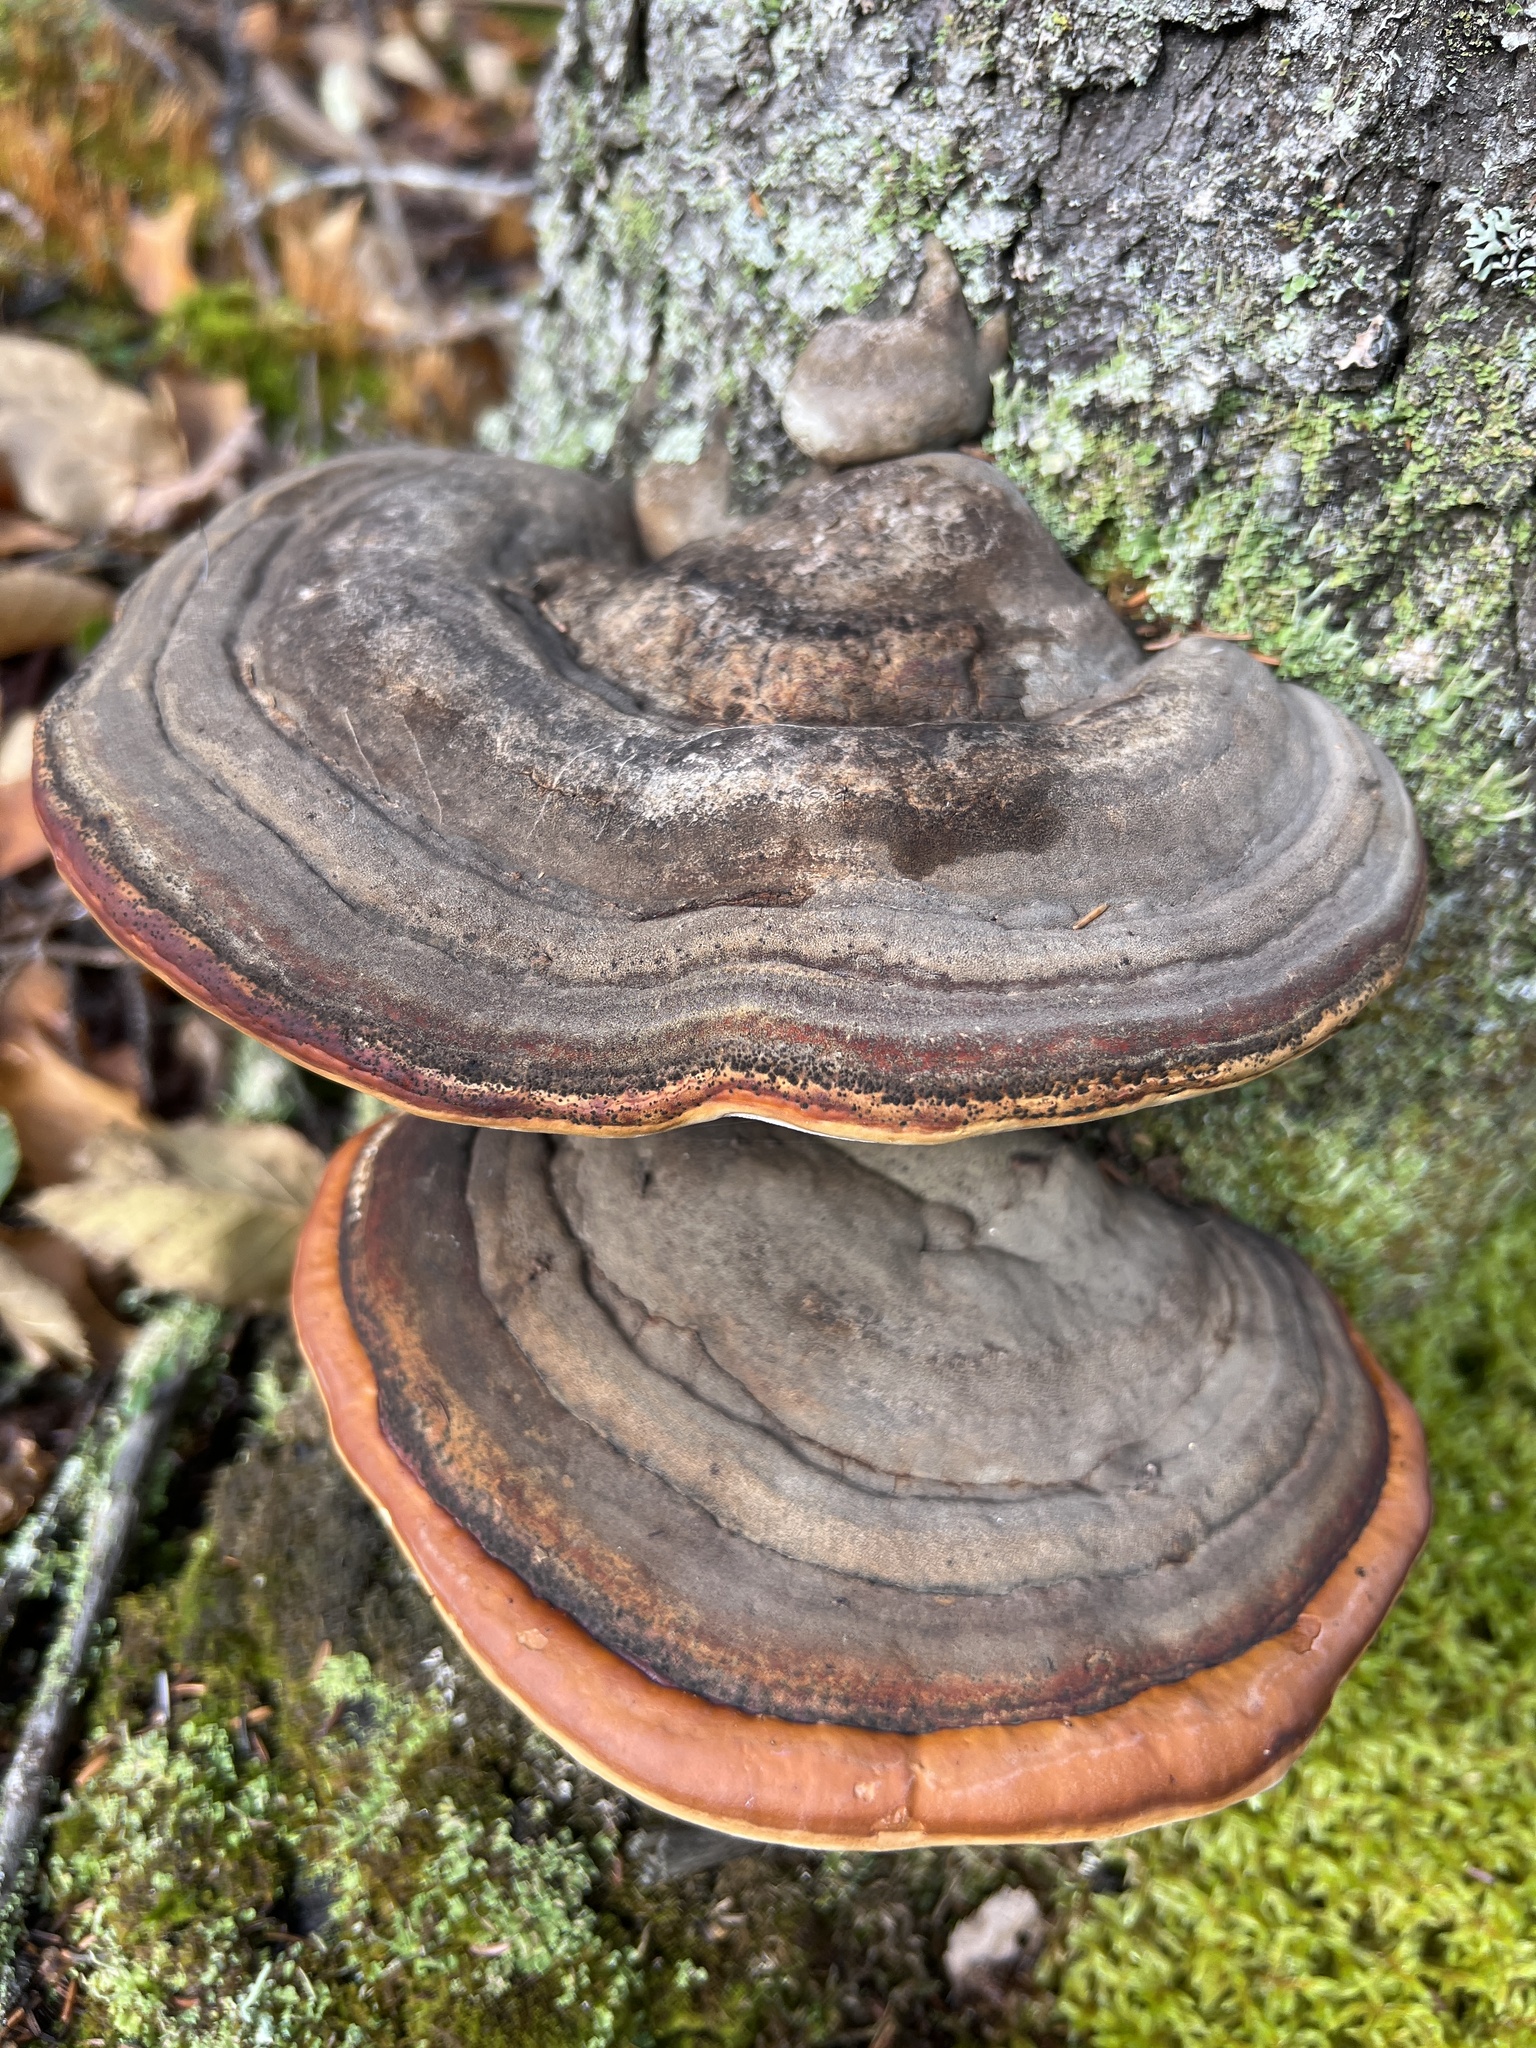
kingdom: Fungi
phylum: Basidiomycota
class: Agaricomycetes
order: Polyporales
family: Fomitopsidaceae
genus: Fomitopsis
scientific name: Fomitopsis mounceae
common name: Northern red belt
